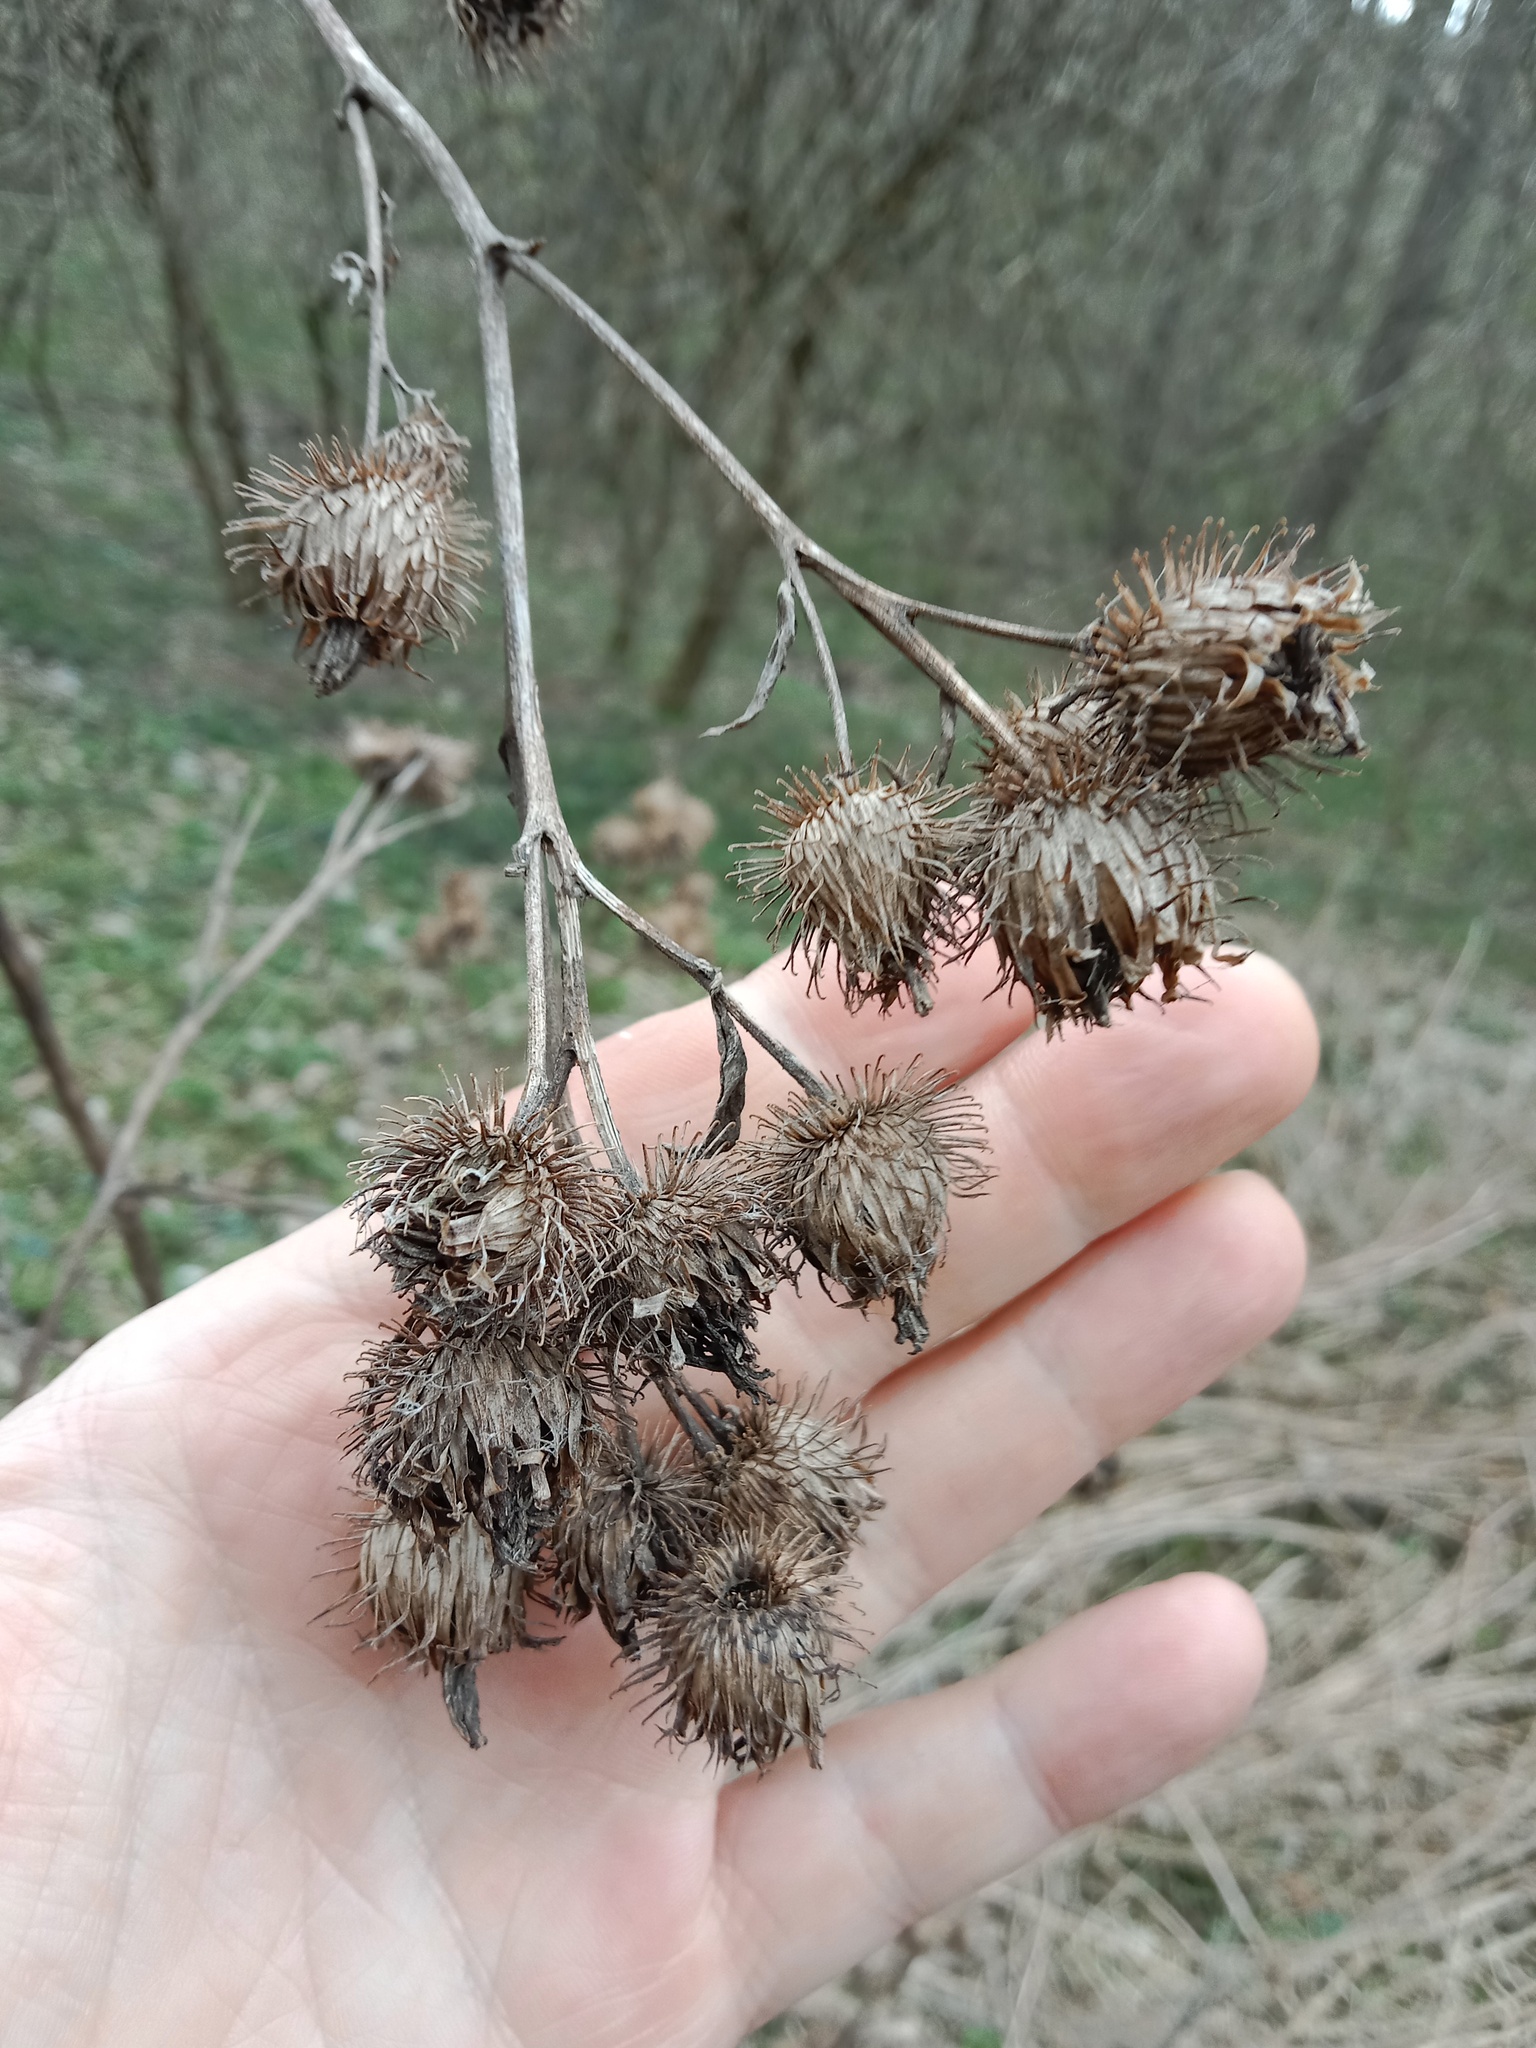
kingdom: Plantae
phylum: Tracheophyta
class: Magnoliopsida
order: Asterales
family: Asteraceae
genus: Arctium
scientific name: Arctium tomentosum
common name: Woolly burdock
